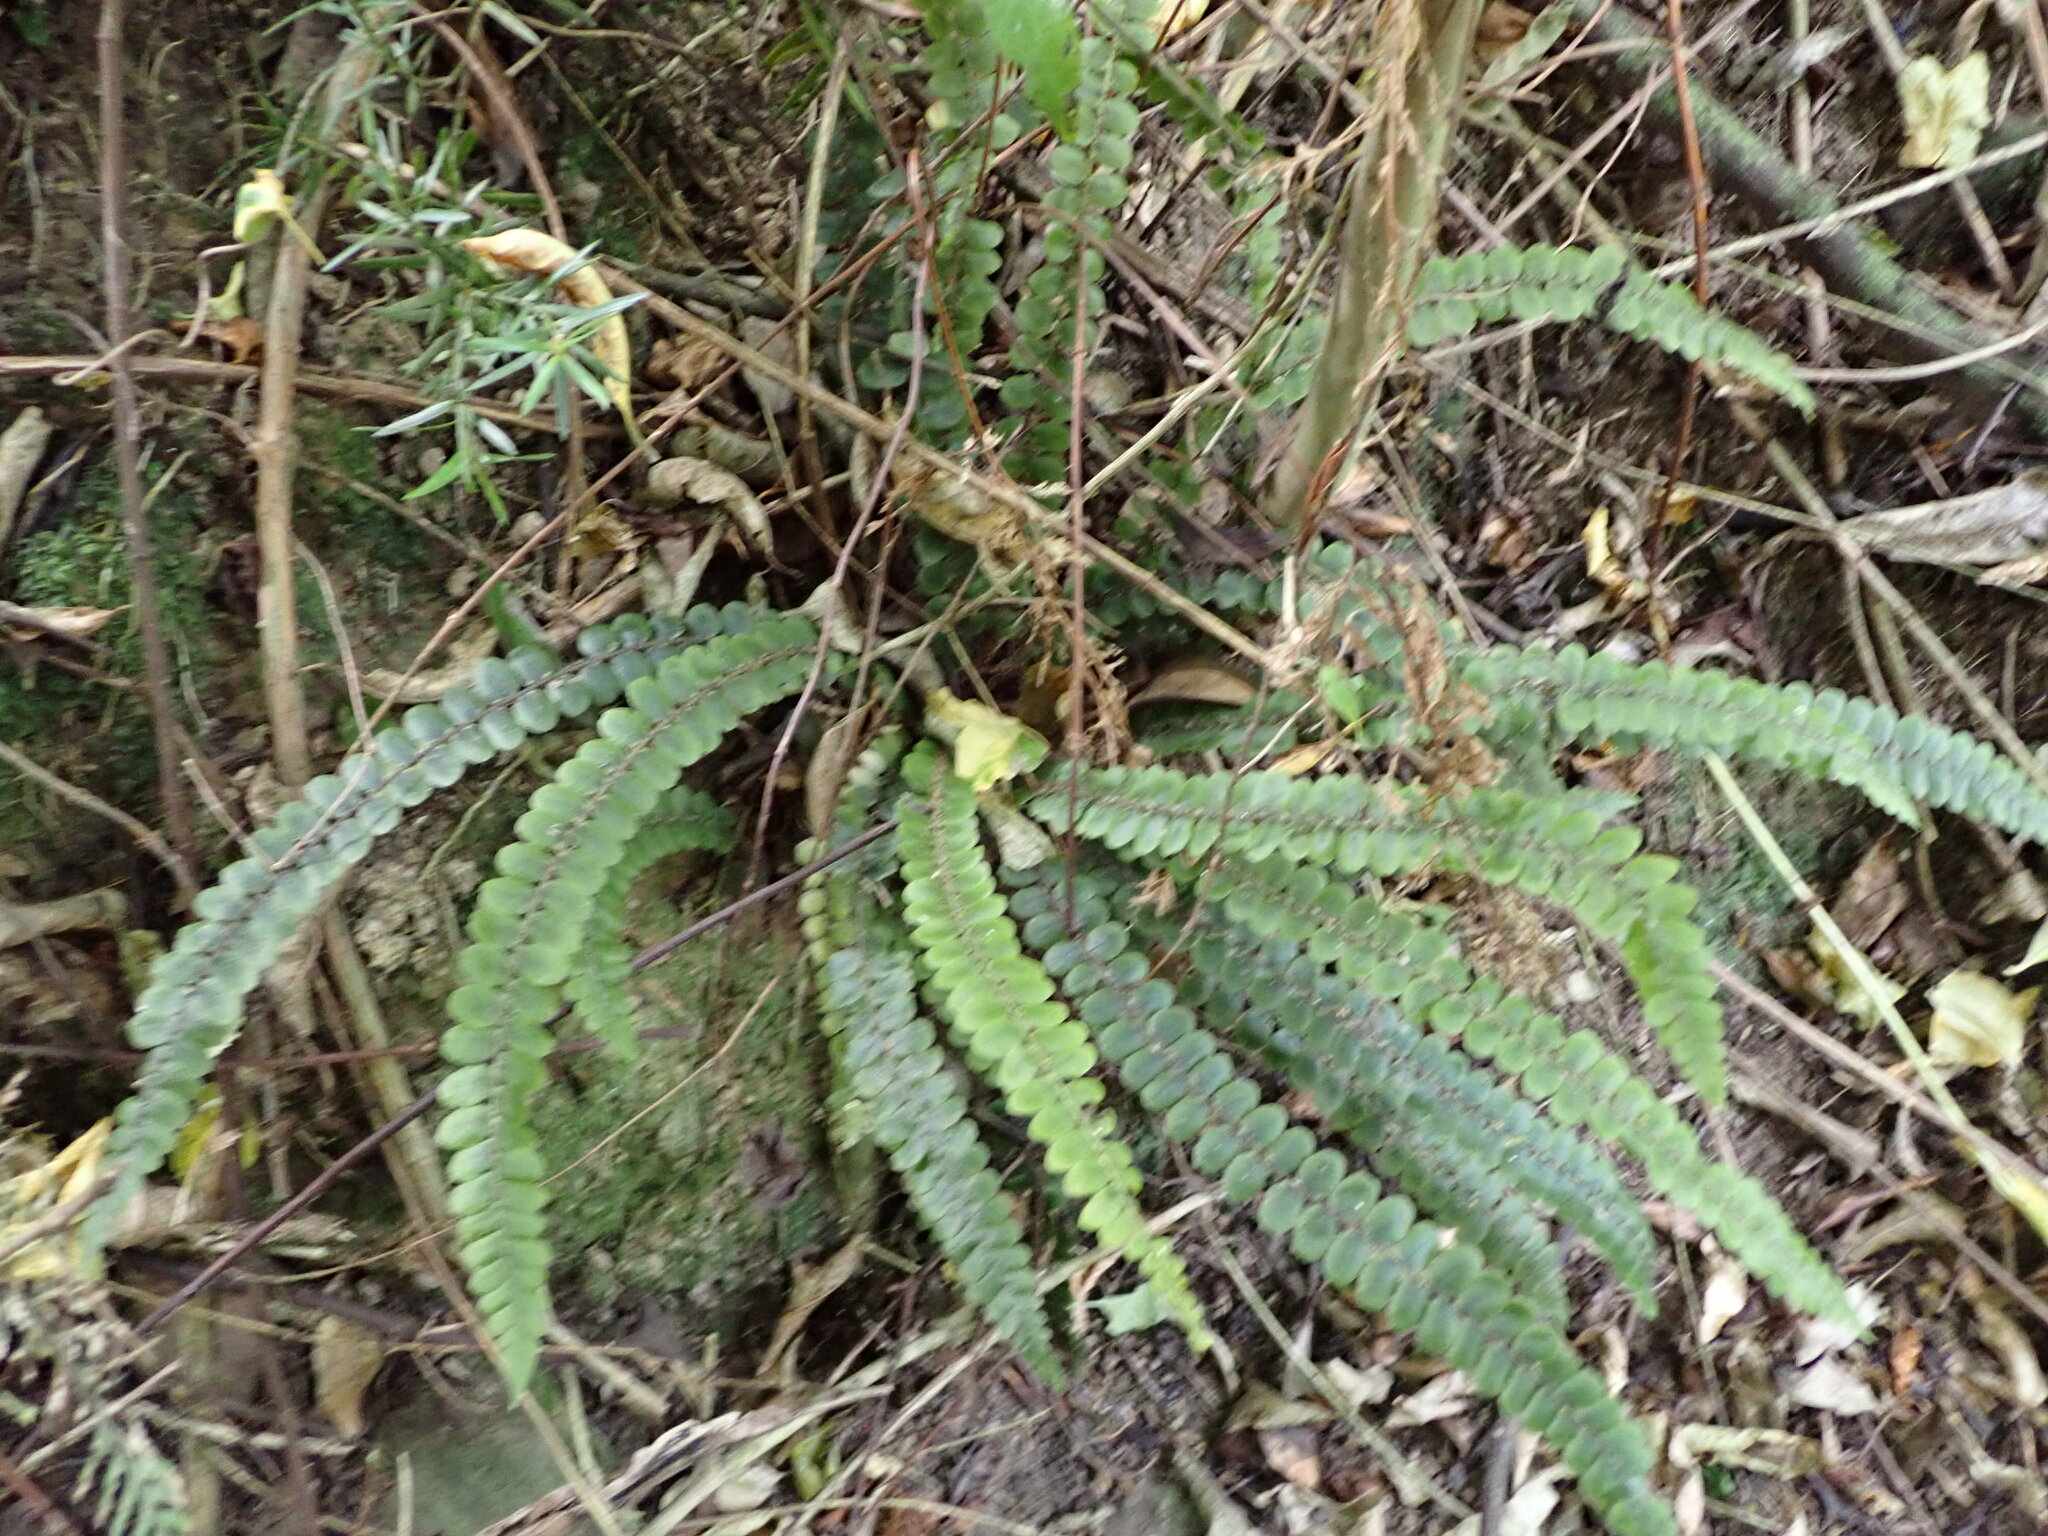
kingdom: Plantae
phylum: Tracheophyta
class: Polypodiopsida
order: Polypodiales
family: Blechnaceae
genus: Cranfillia
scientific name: Cranfillia fluviatilis
